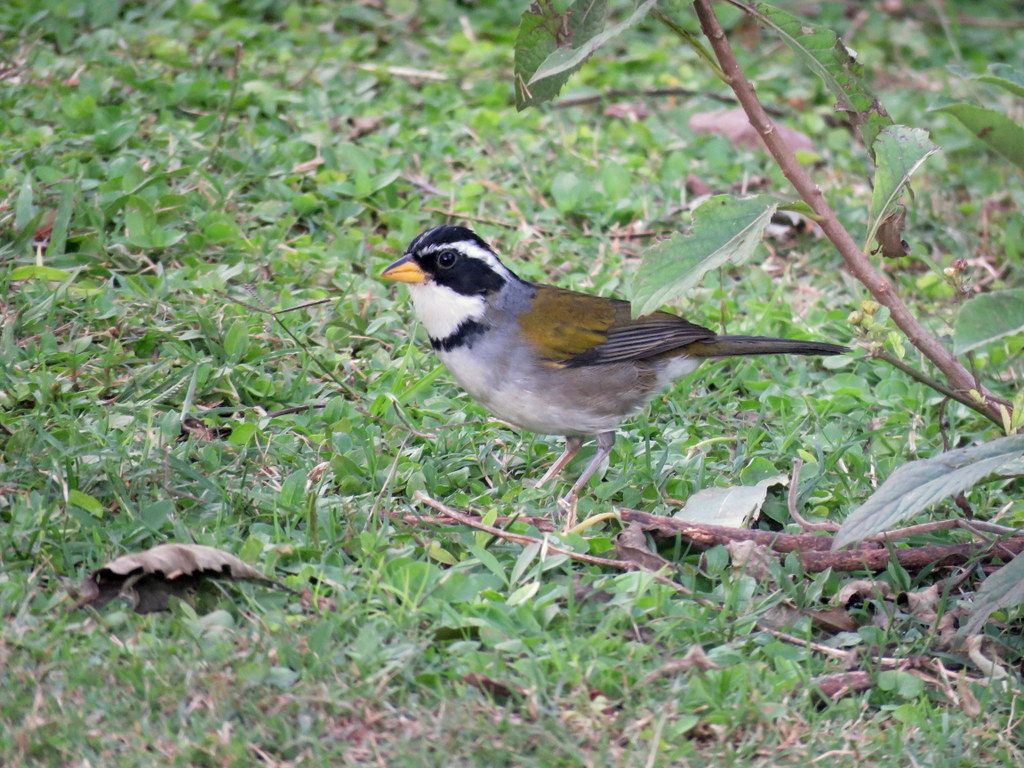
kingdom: Animalia
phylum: Chordata
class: Aves
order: Passeriformes
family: Passerellidae
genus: Arremon
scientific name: Arremon dorbignii
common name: Moss-backed sparrow
